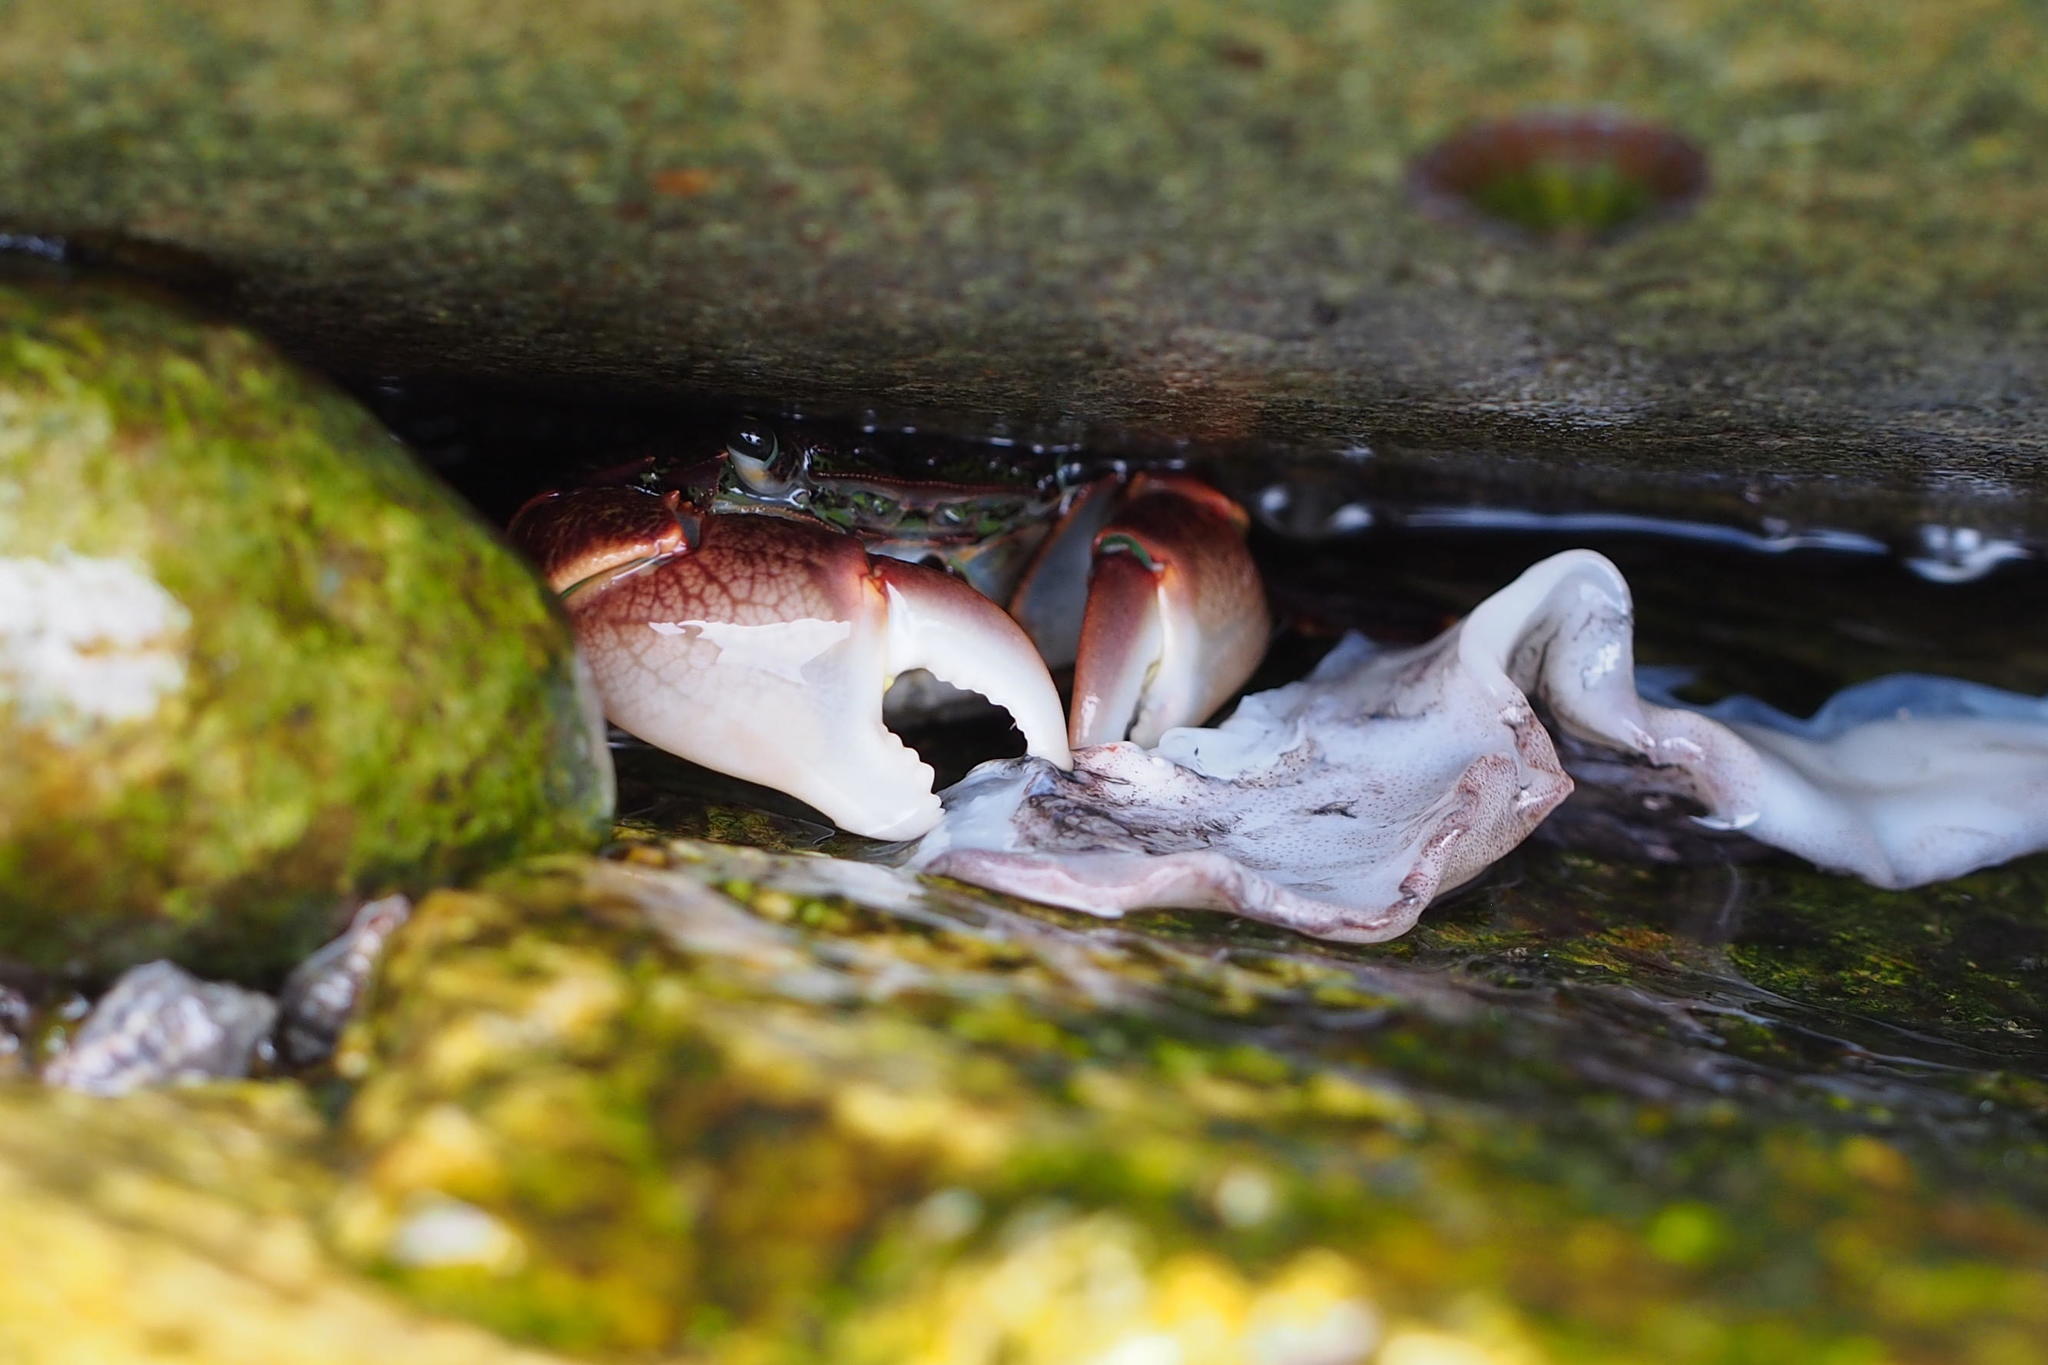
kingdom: Animalia
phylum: Arthropoda
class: Malacostraca
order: Decapoda
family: Grapsidae
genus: Pachygrapsus
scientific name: Pachygrapsus crassipes
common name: Striped shore crab
